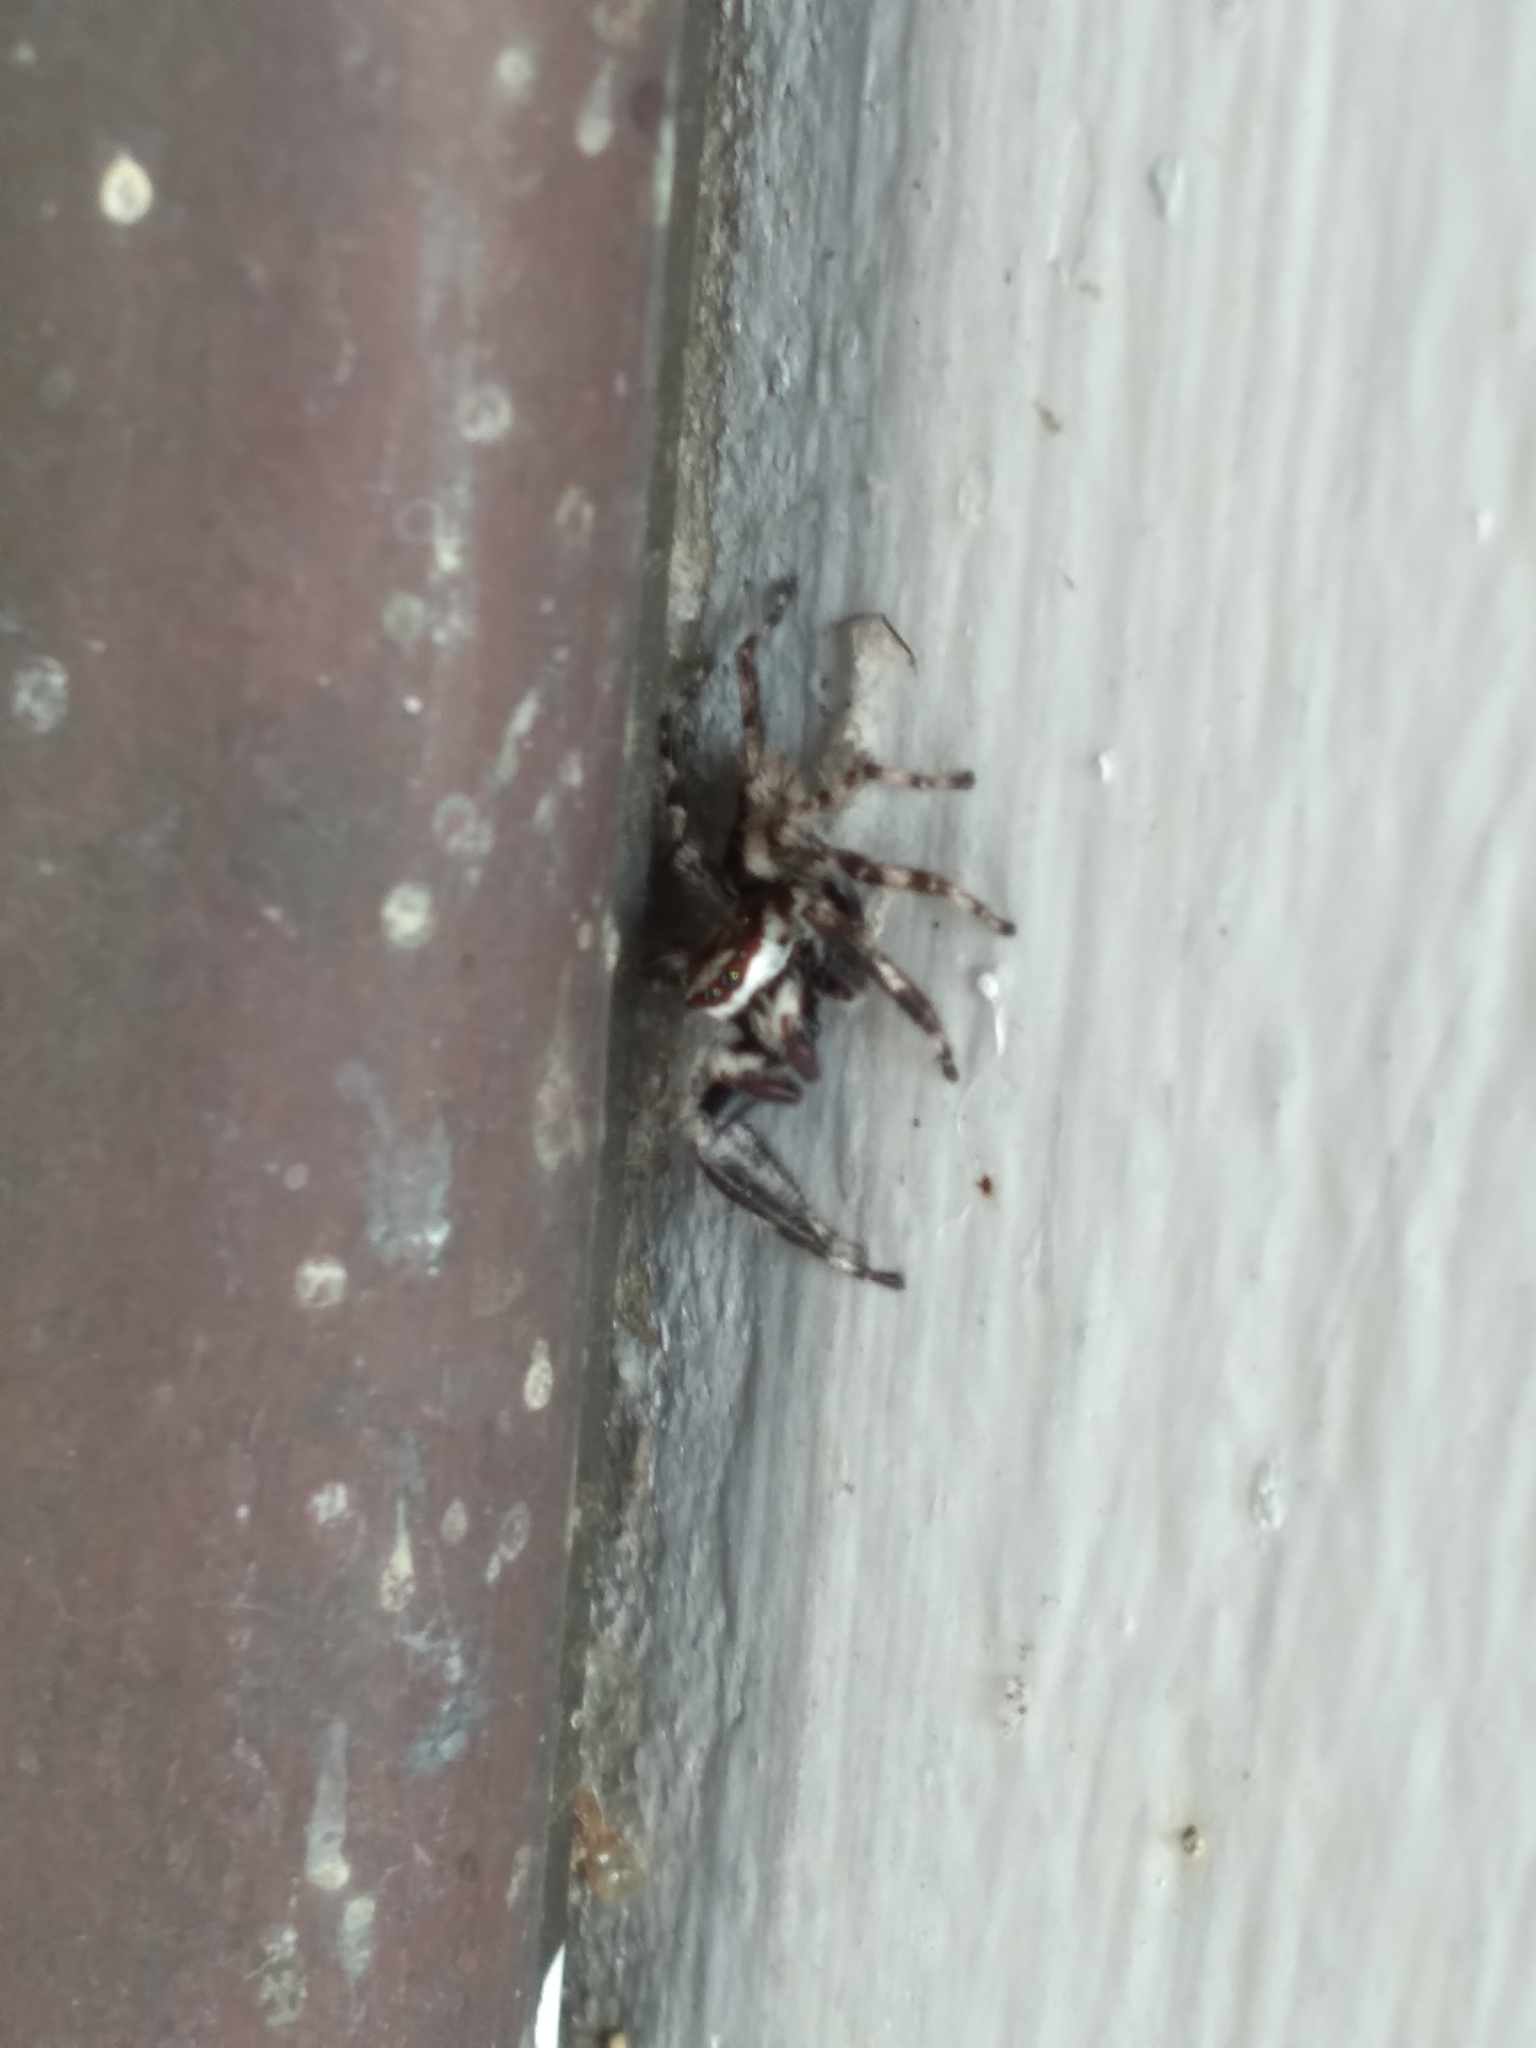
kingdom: Animalia
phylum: Arthropoda
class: Arachnida
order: Araneae
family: Salticidae
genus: Menemerus
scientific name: Menemerus bivittatus
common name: Gray wall jumper
